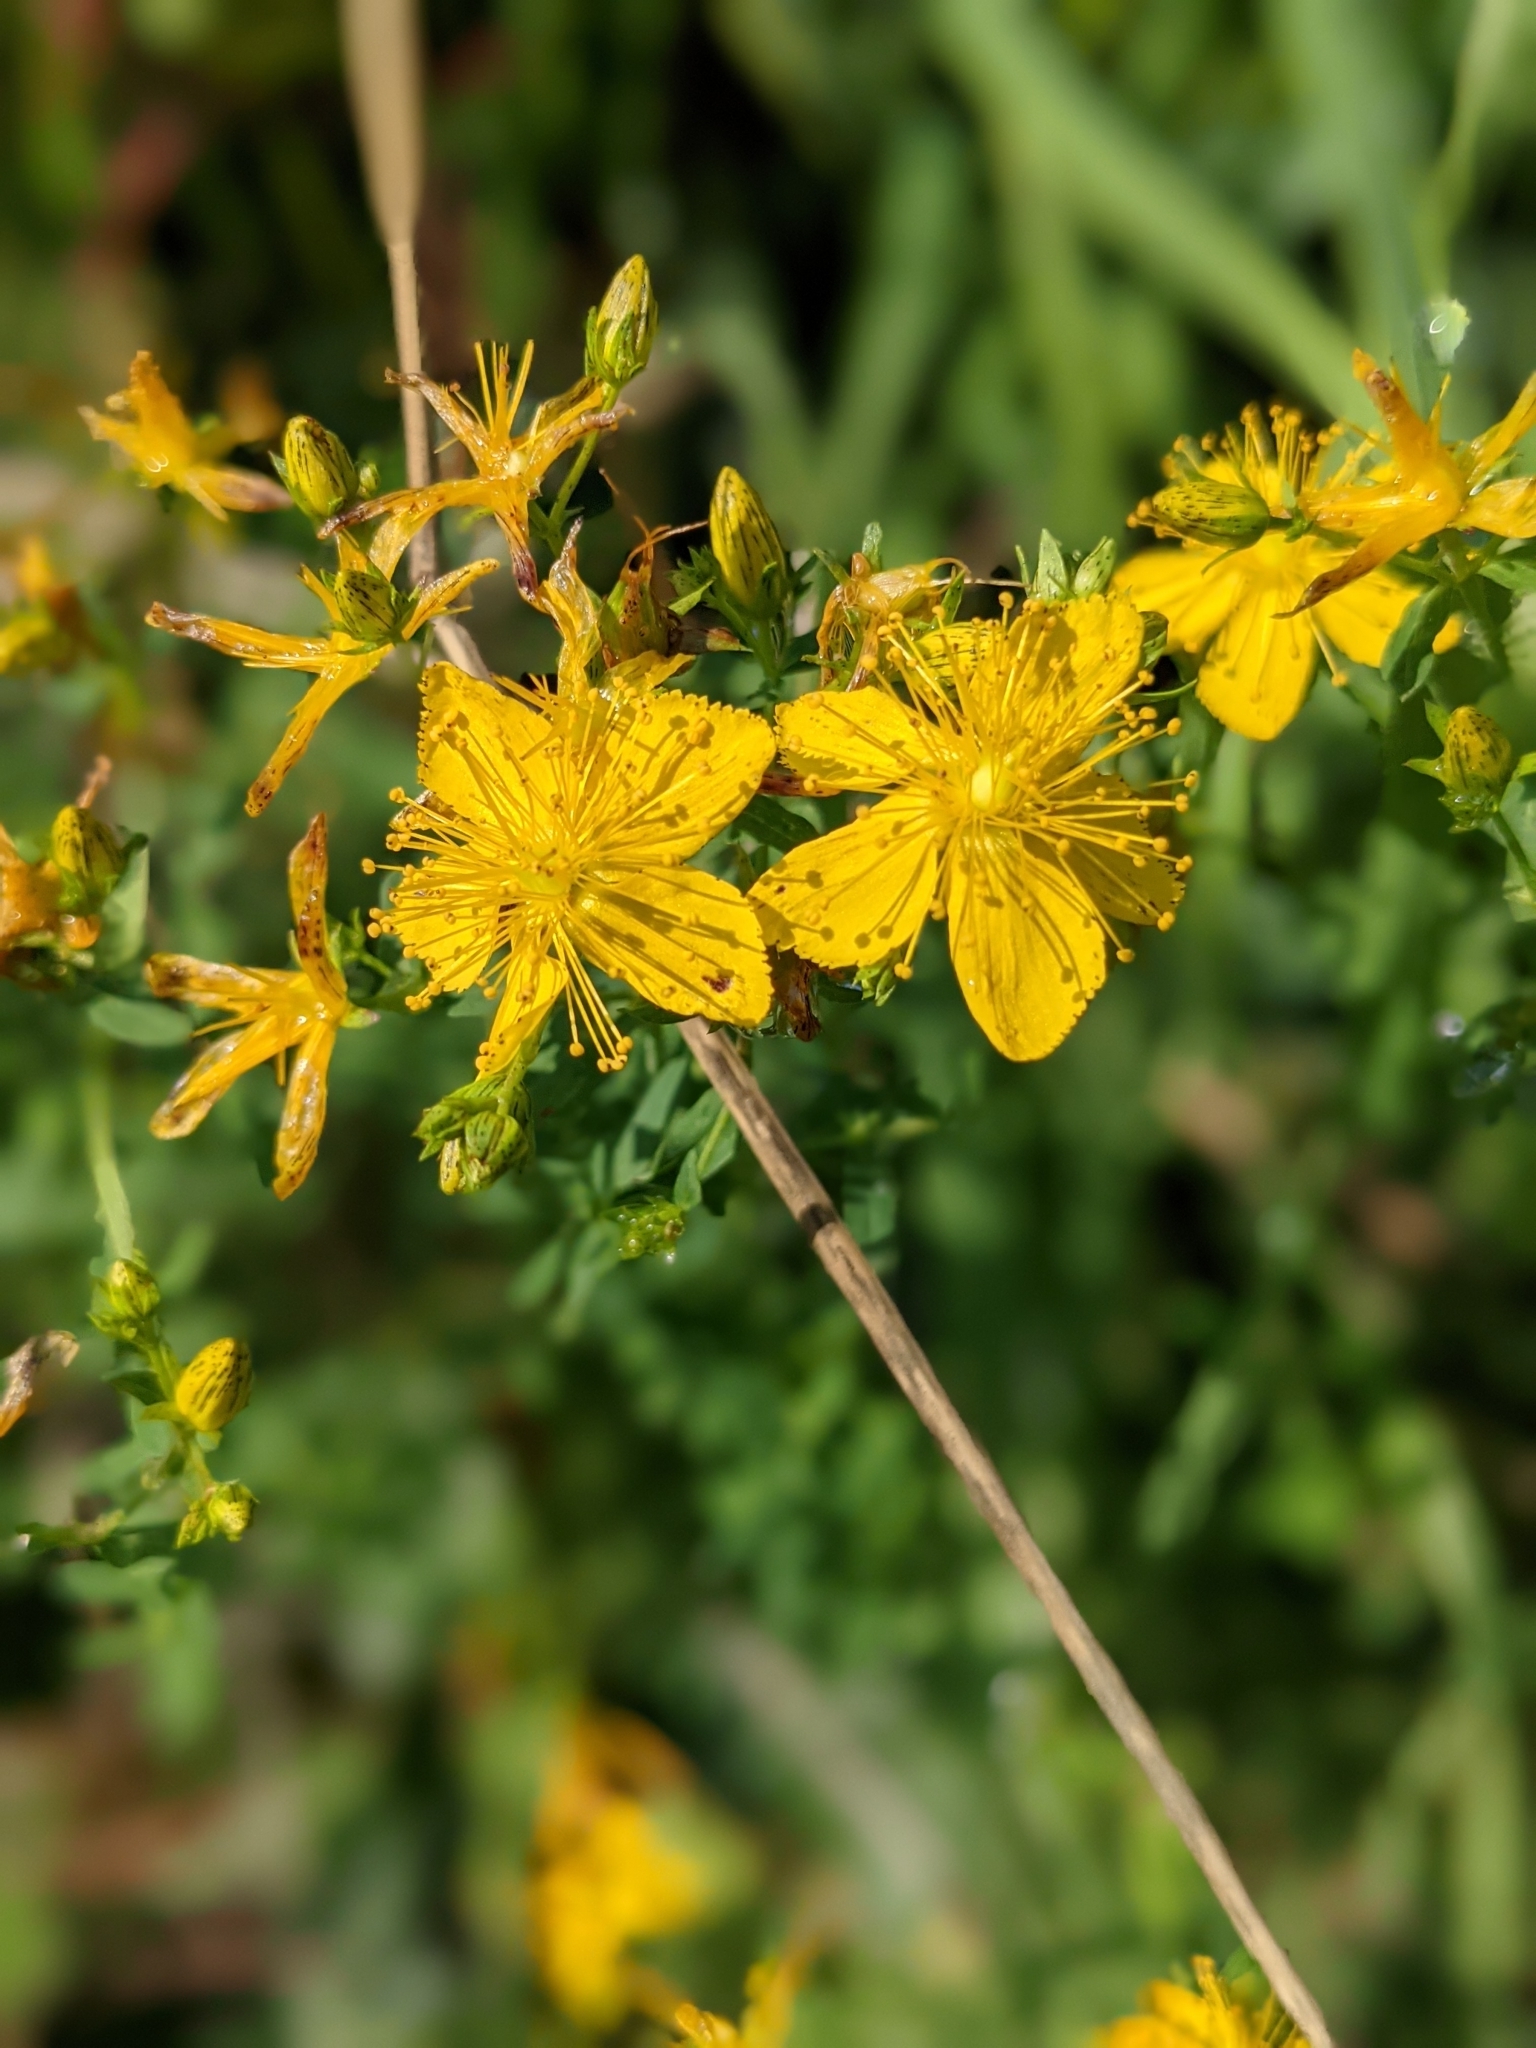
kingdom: Plantae
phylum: Tracheophyta
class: Magnoliopsida
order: Malpighiales
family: Hypericaceae
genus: Hypericum
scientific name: Hypericum maculatum
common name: Imperforate st. john's-wort
